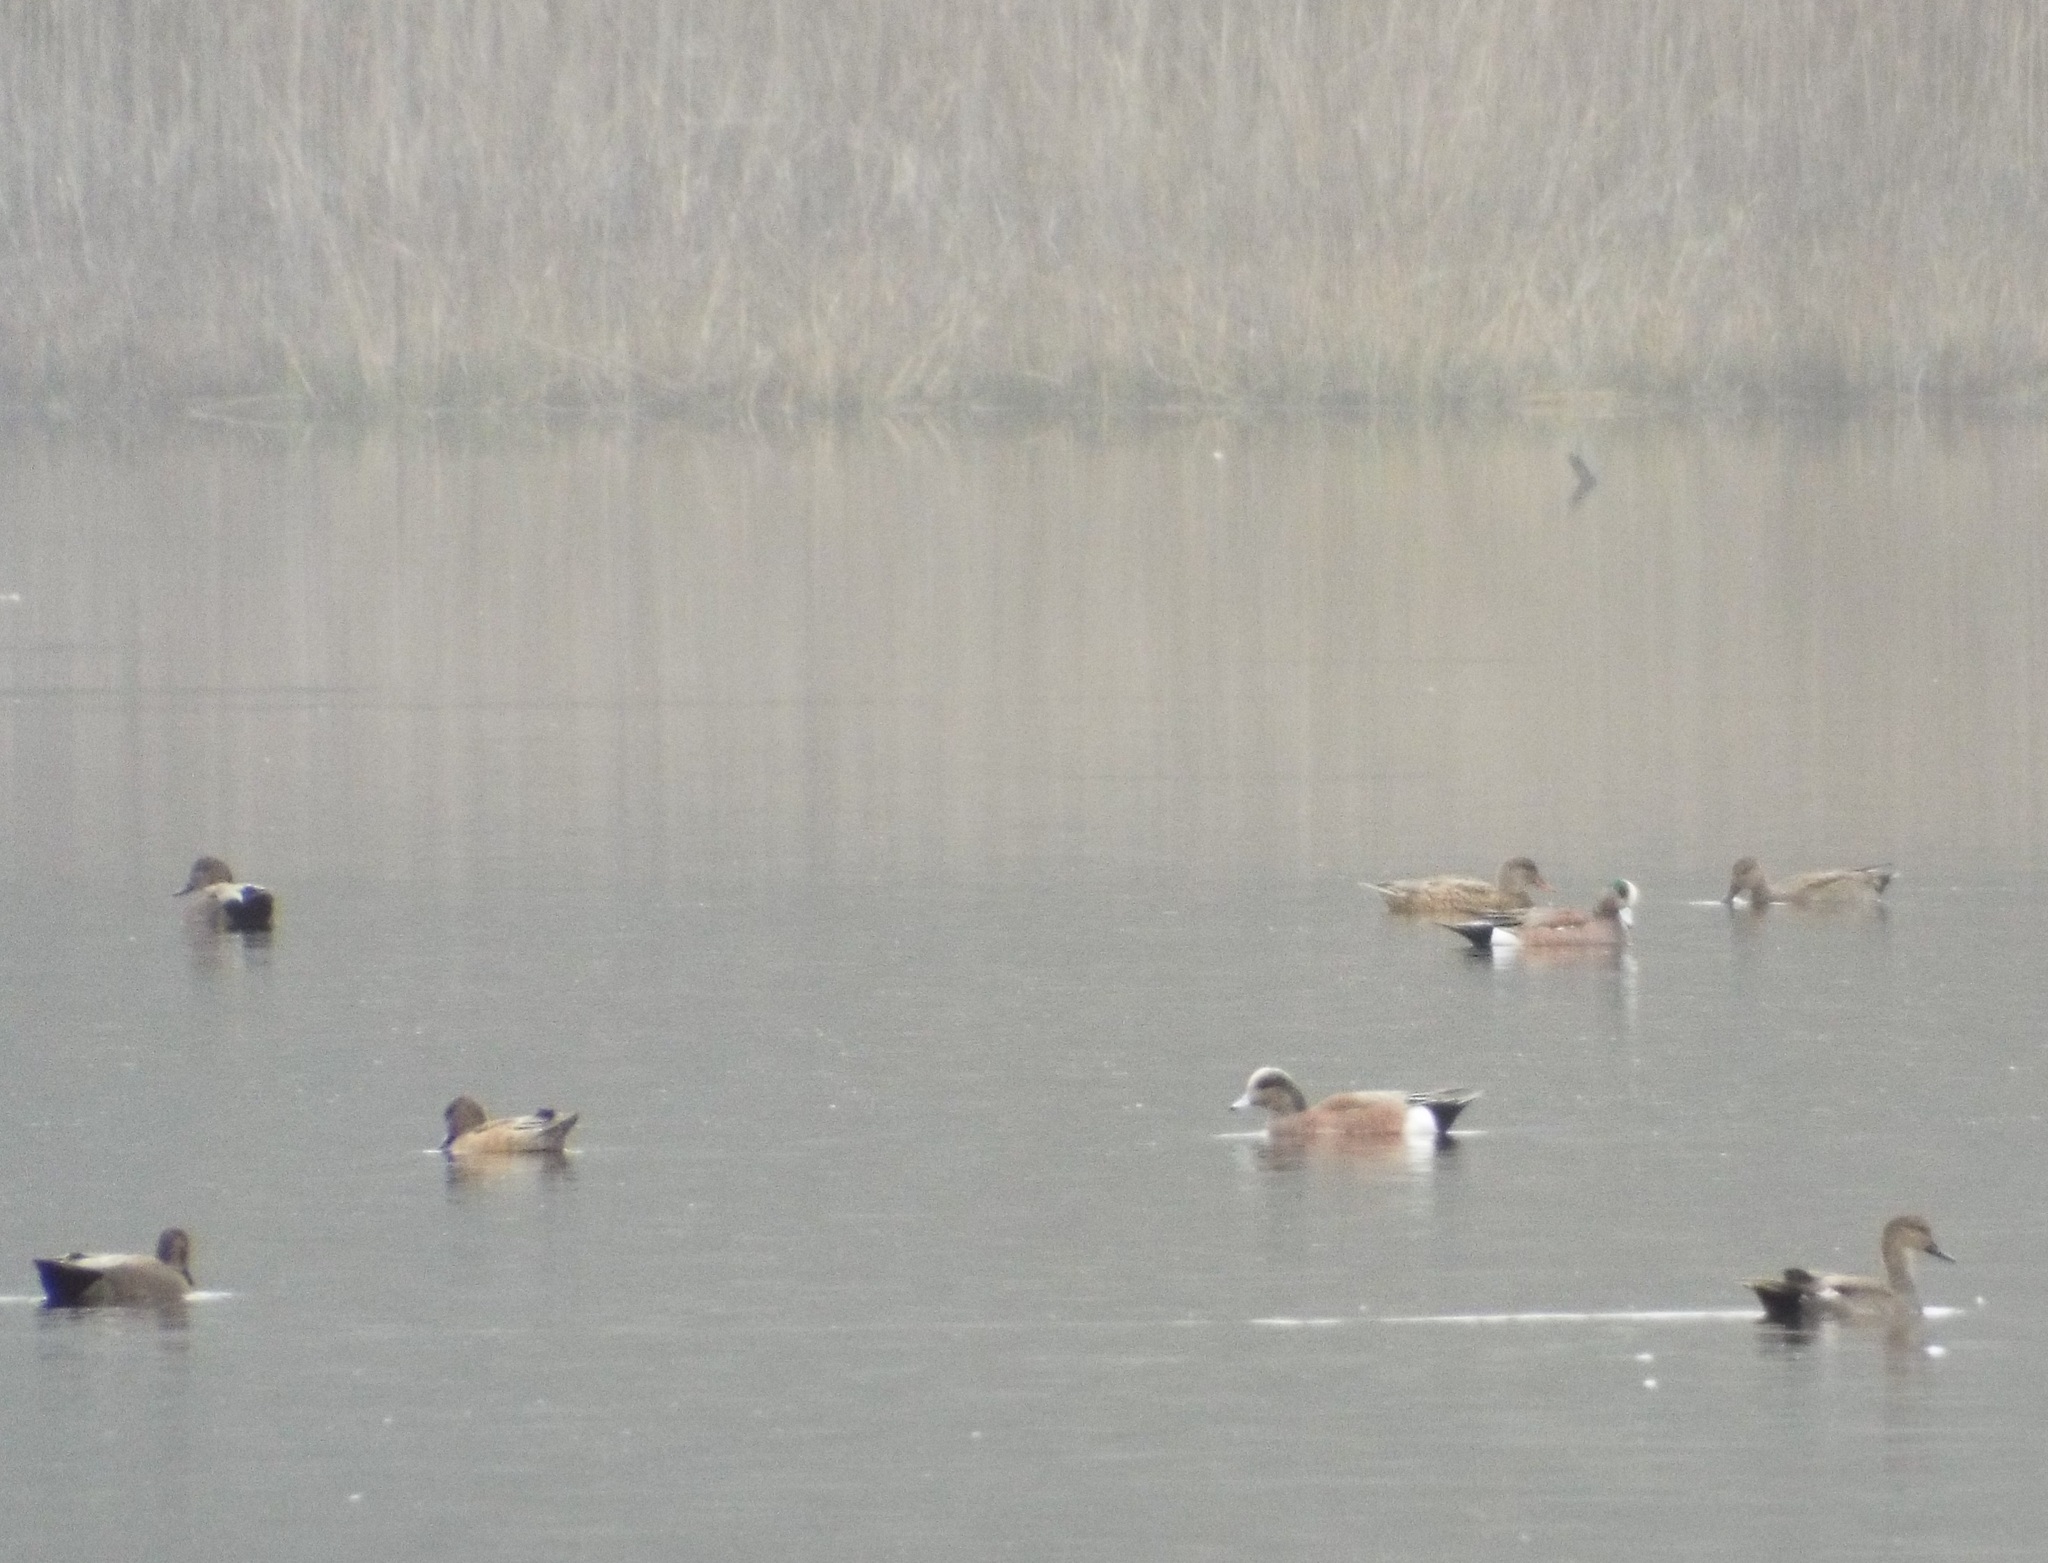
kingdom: Animalia
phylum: Chordata
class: Aves
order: Anseriformes
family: Anatidae
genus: Mareca
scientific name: Mareca americana
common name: American wigeon
